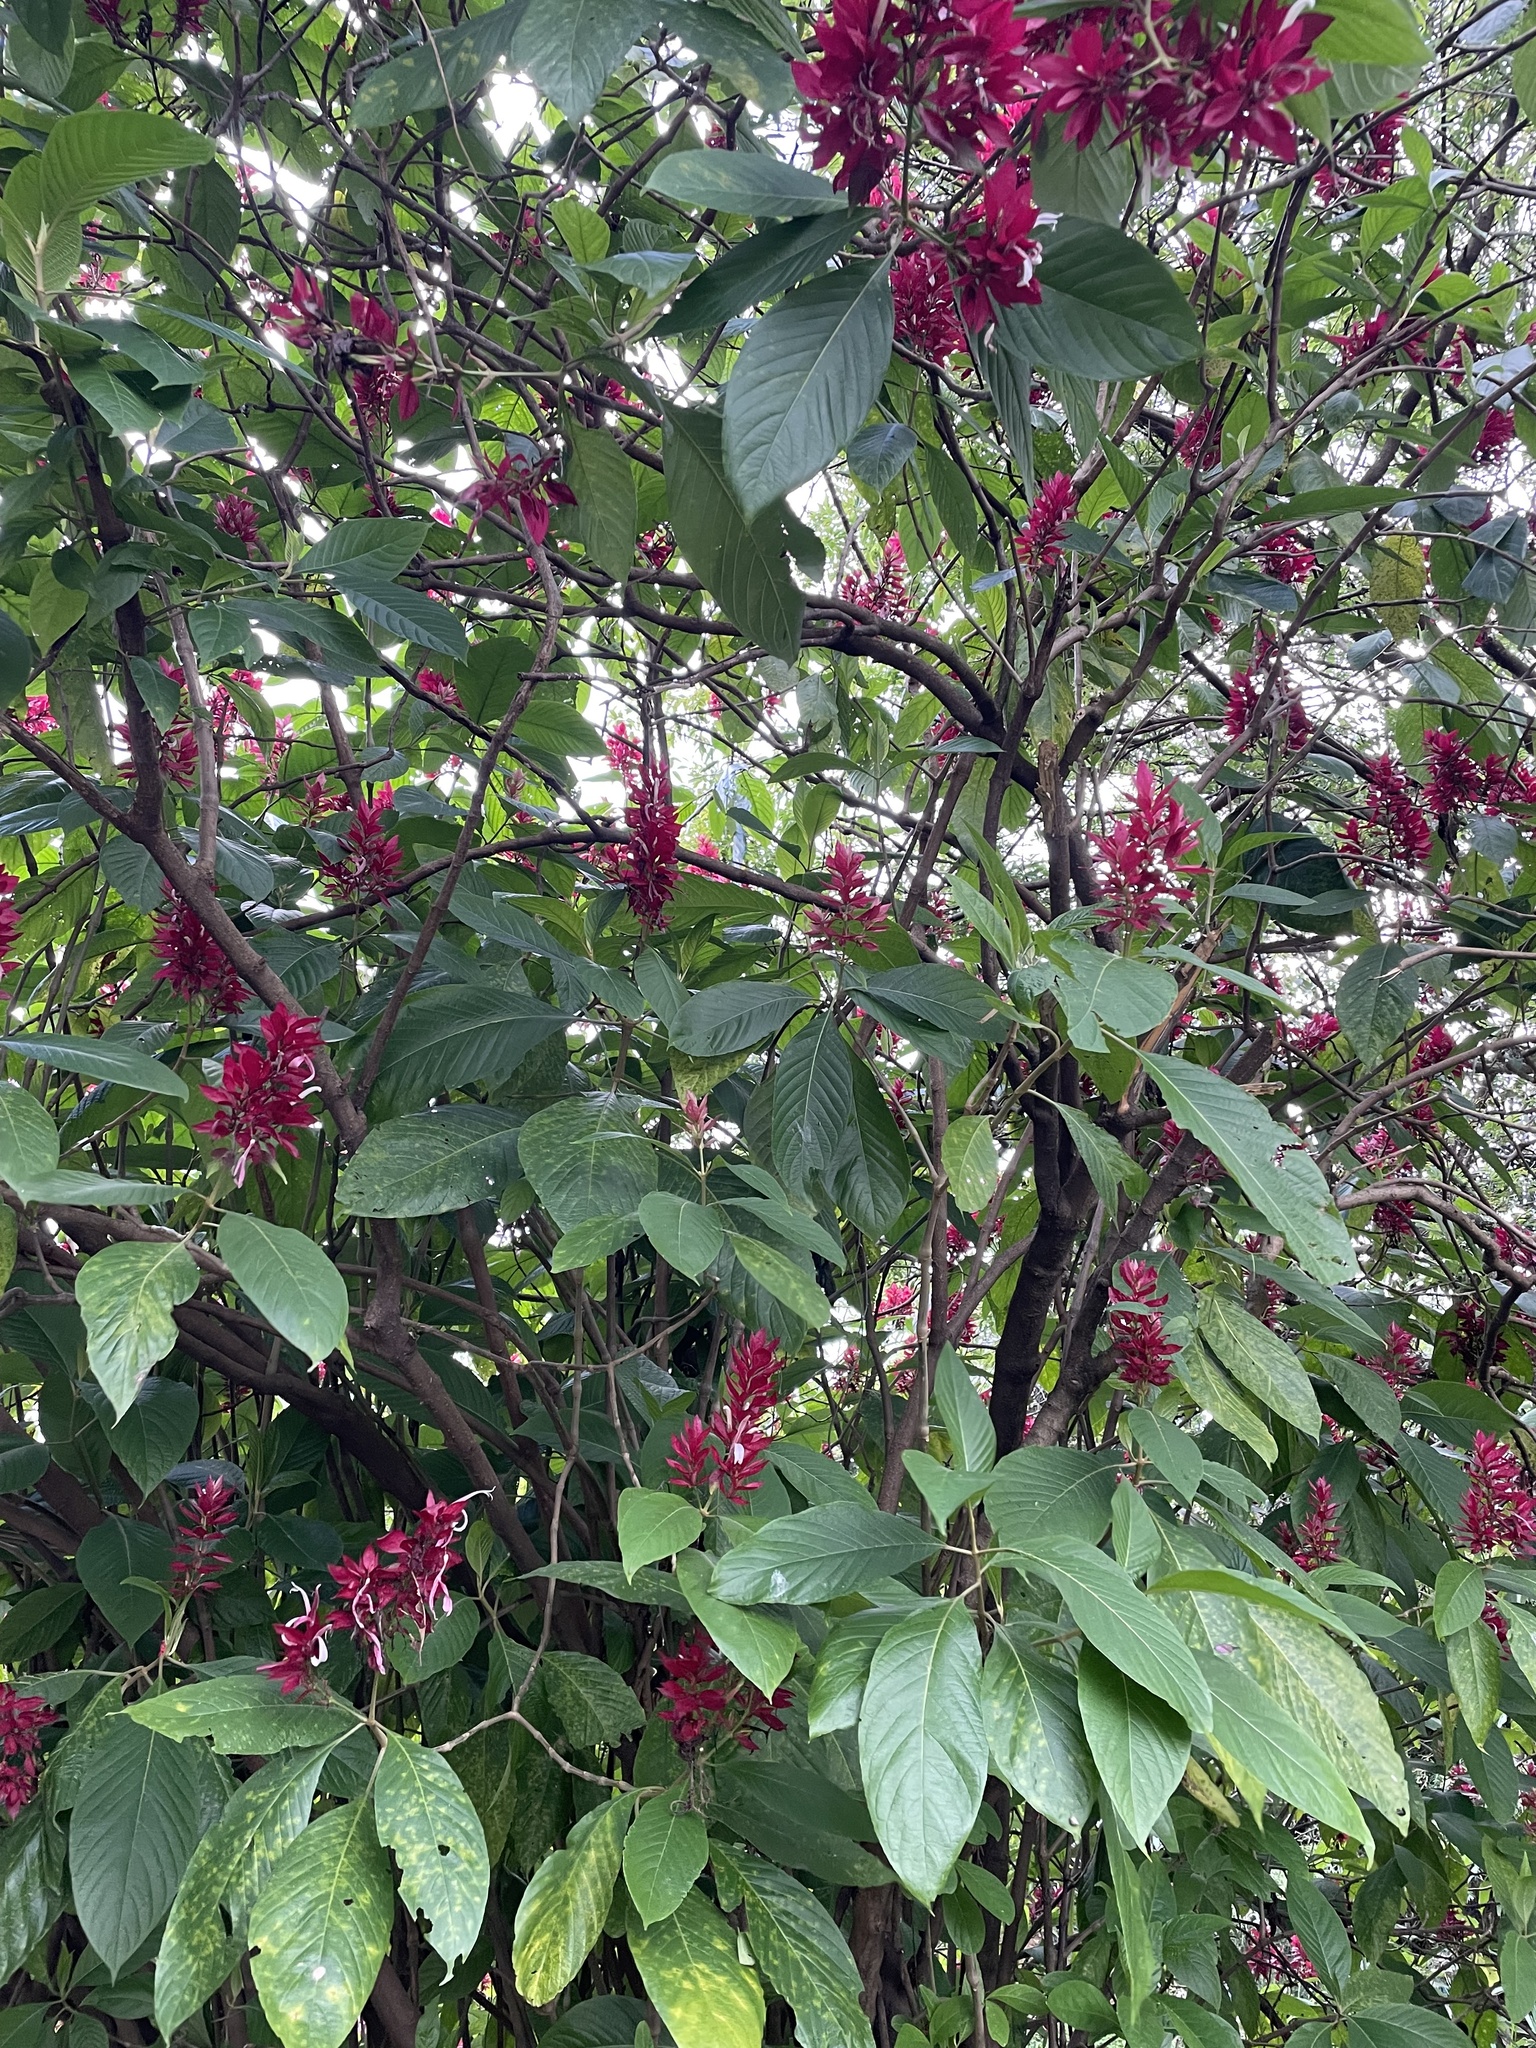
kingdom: Plantae
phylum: Tracheophyta
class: Magnoliopsida
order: Lamiales
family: Acanthaceae
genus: Megaskepasma
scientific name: Megaskepasma erythrochlamys
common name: Brazilian red-cloak
